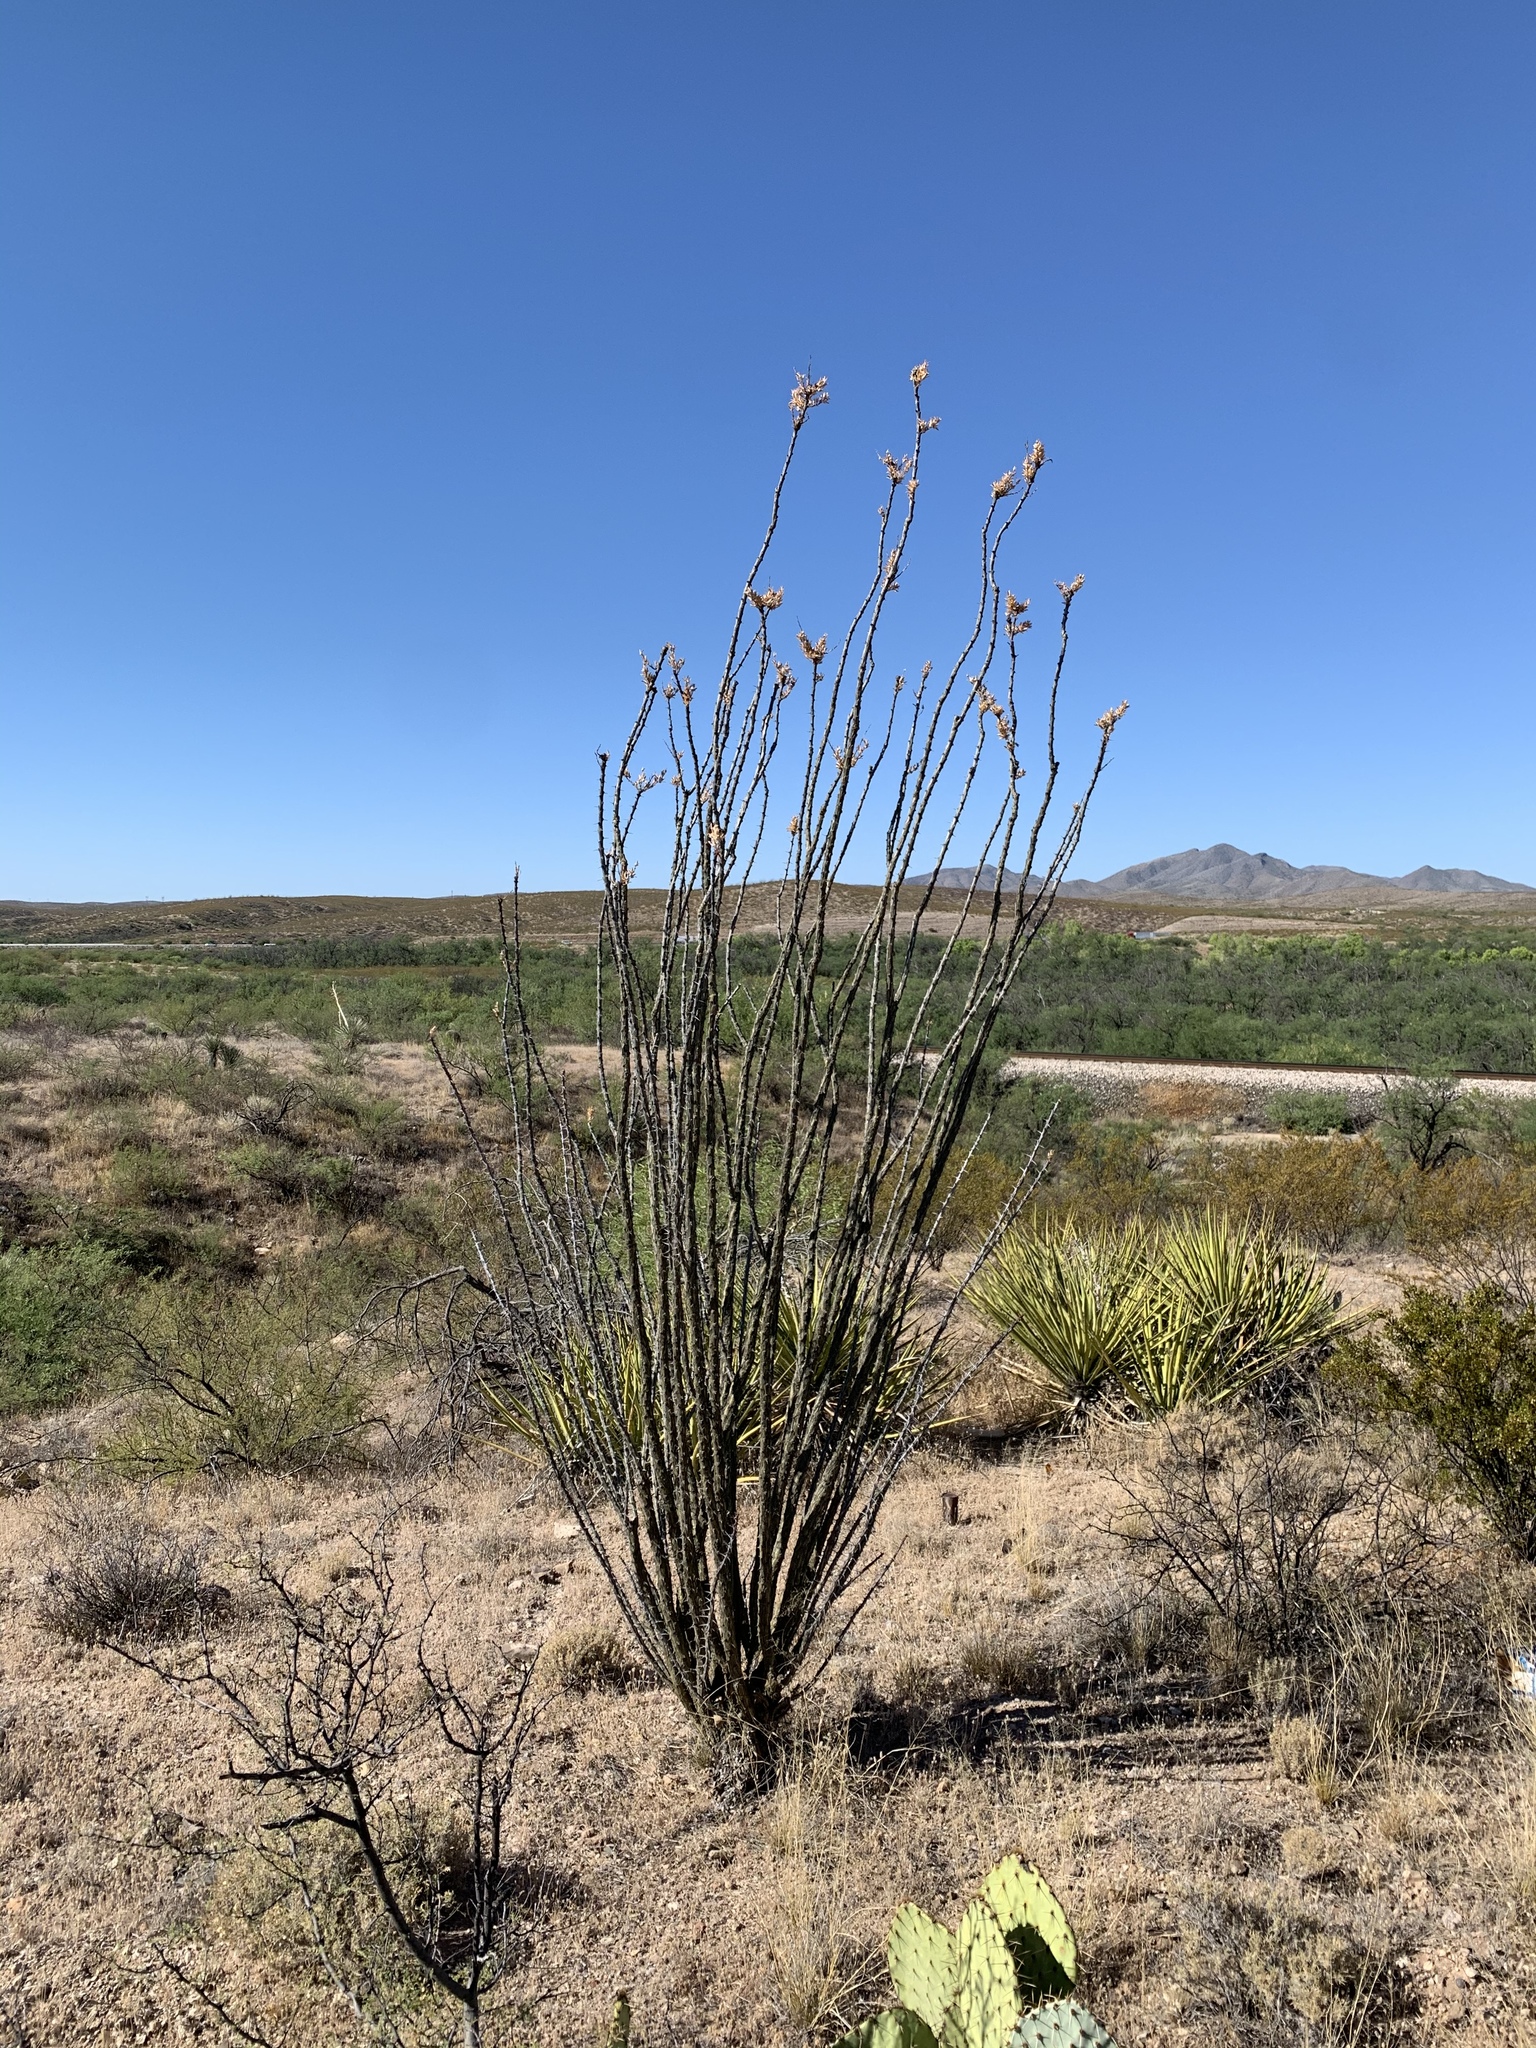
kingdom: Plantae
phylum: Tracheophyta
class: Magnoliopsida
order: Ericales
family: Fouquieriaceae
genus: Fouquieria
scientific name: Fouquieria splendens
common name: Vine-cactus
